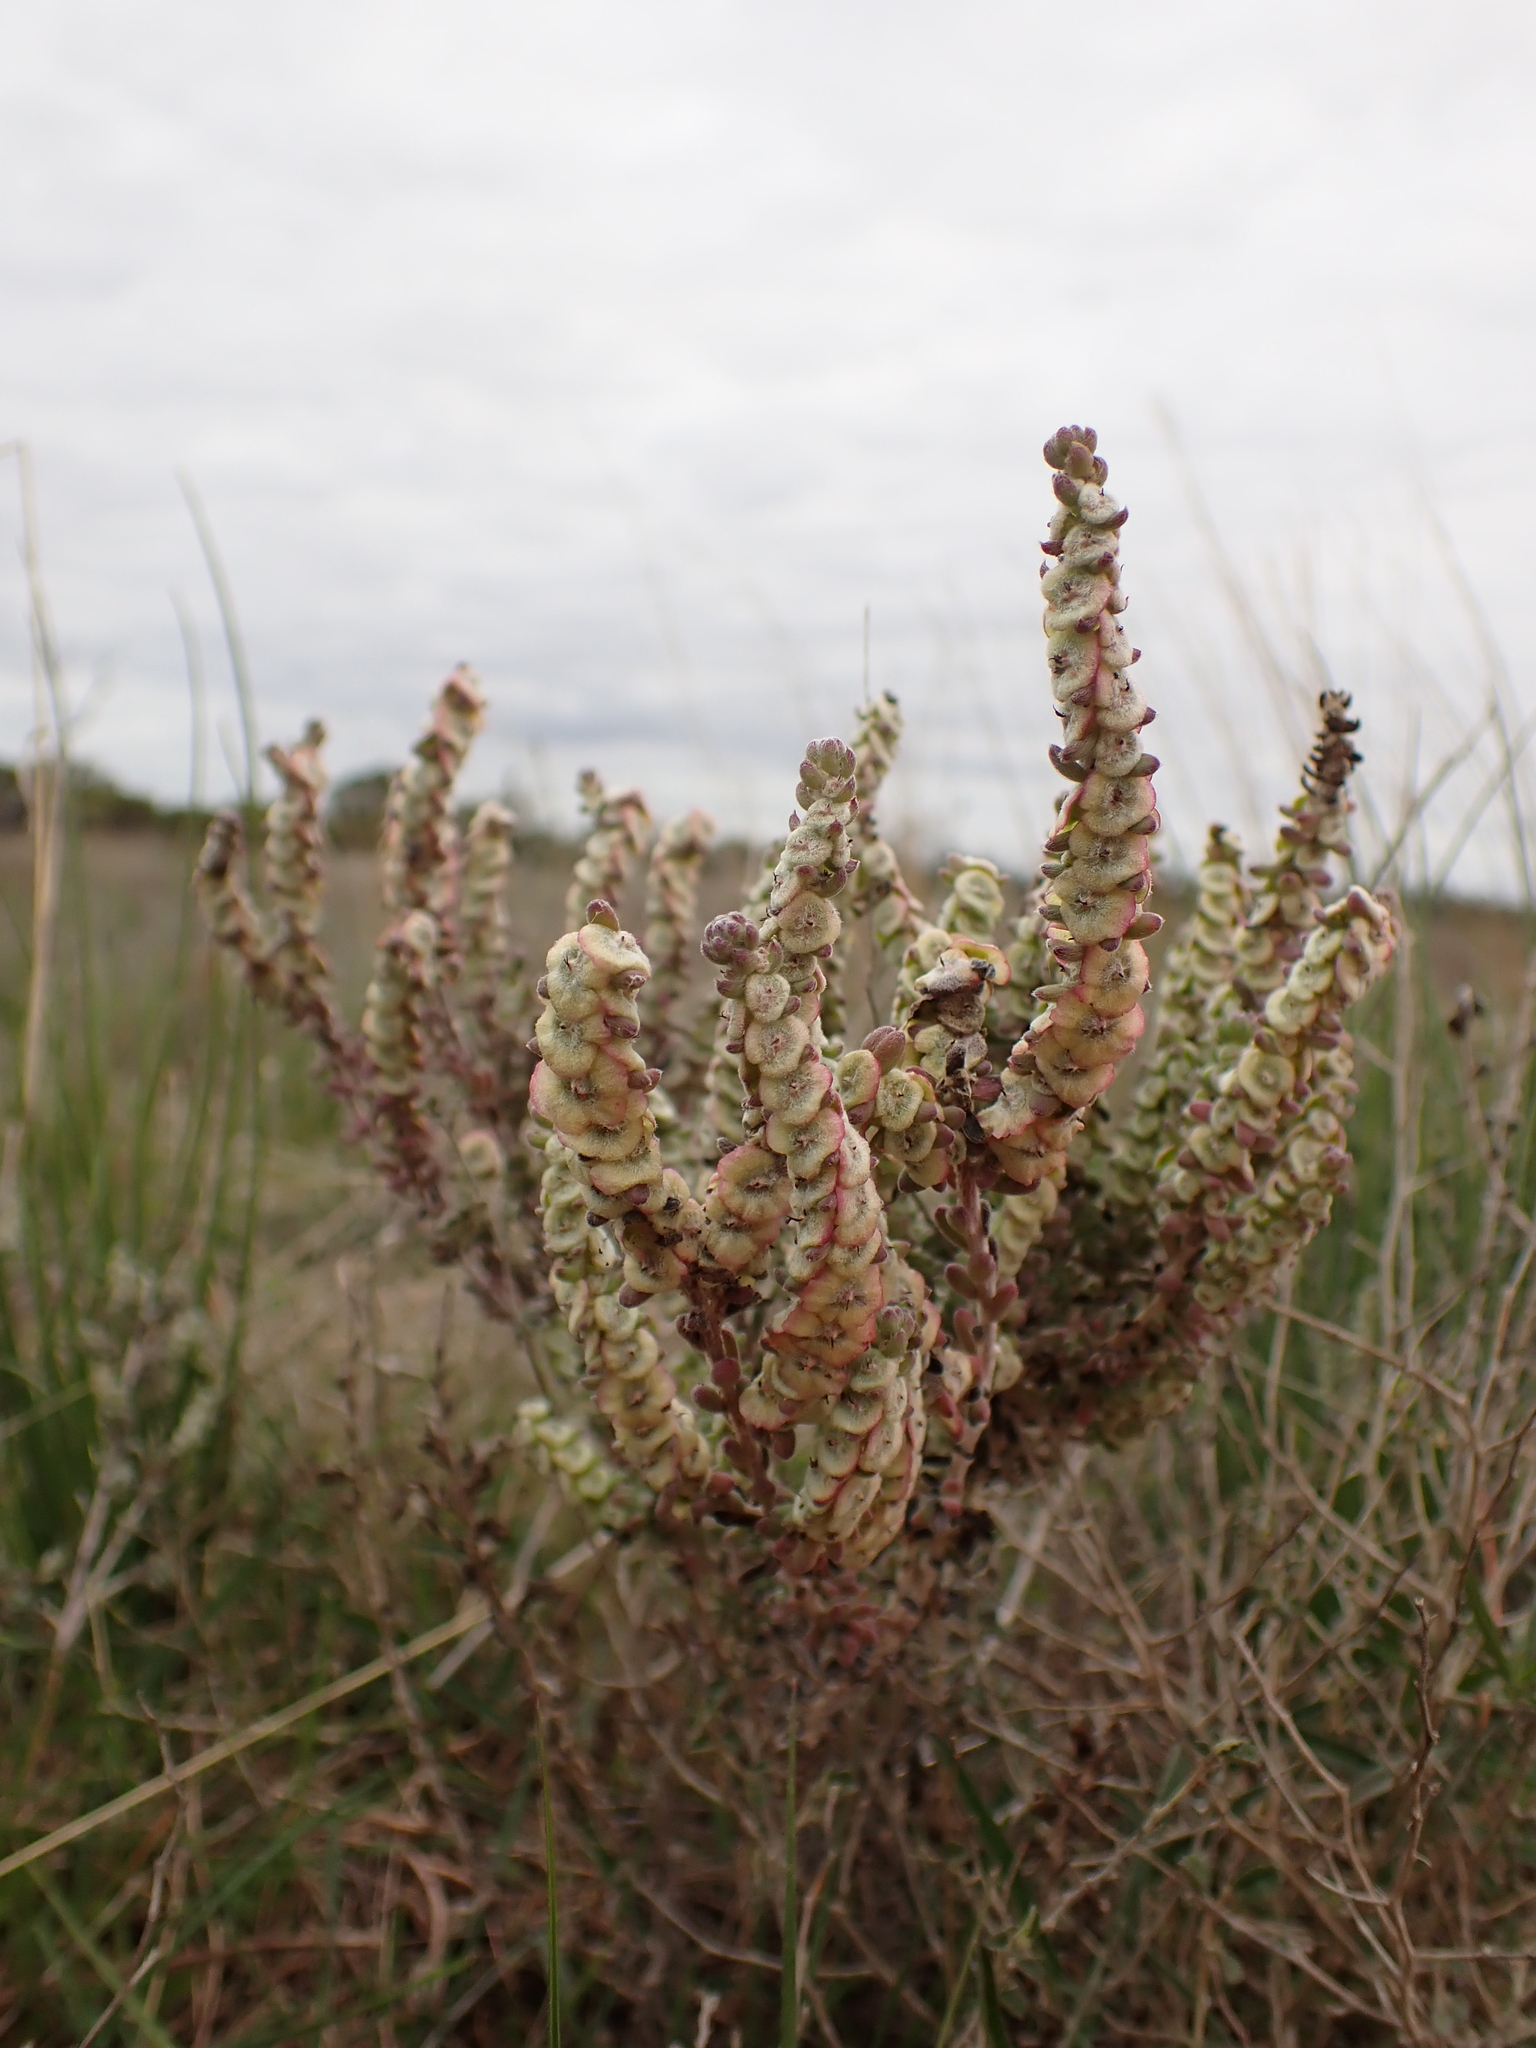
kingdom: Plantae
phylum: Tracheophyta
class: Magnoliopsida
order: Caryophyllales
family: Amaranthaceae
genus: Maireana
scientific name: Maireana trichoptera
